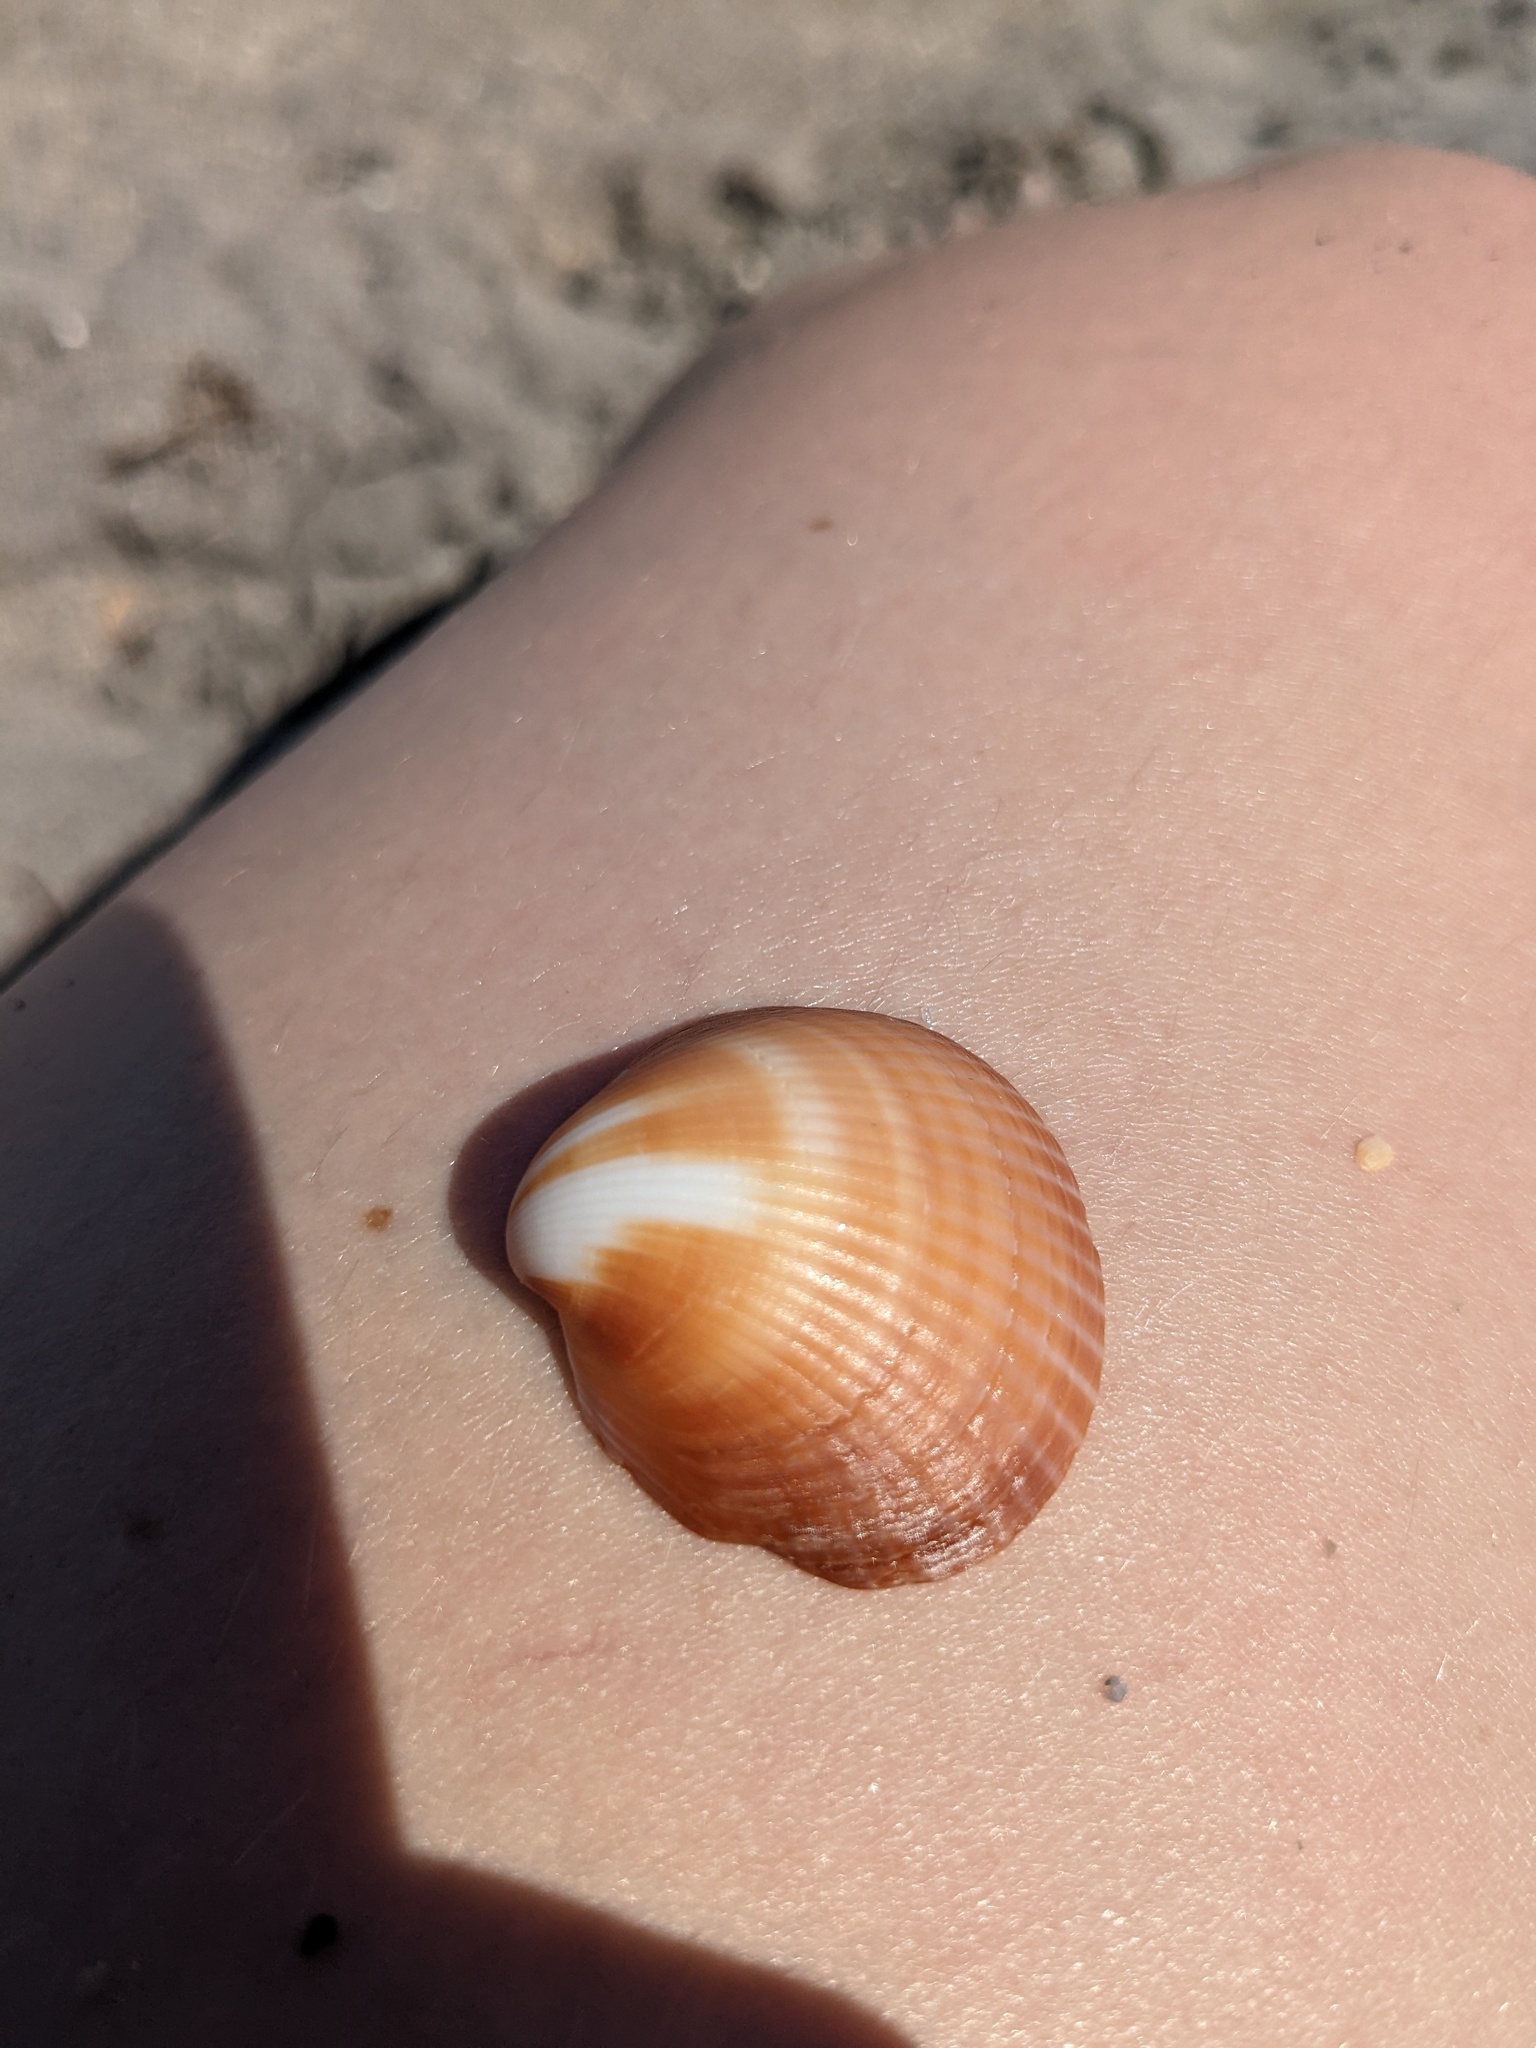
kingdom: Animalia
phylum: Mollusca
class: Bivalvia
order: Arcida
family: Glycymerididae
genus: Glycymeris
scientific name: Glycymeris spectralis
